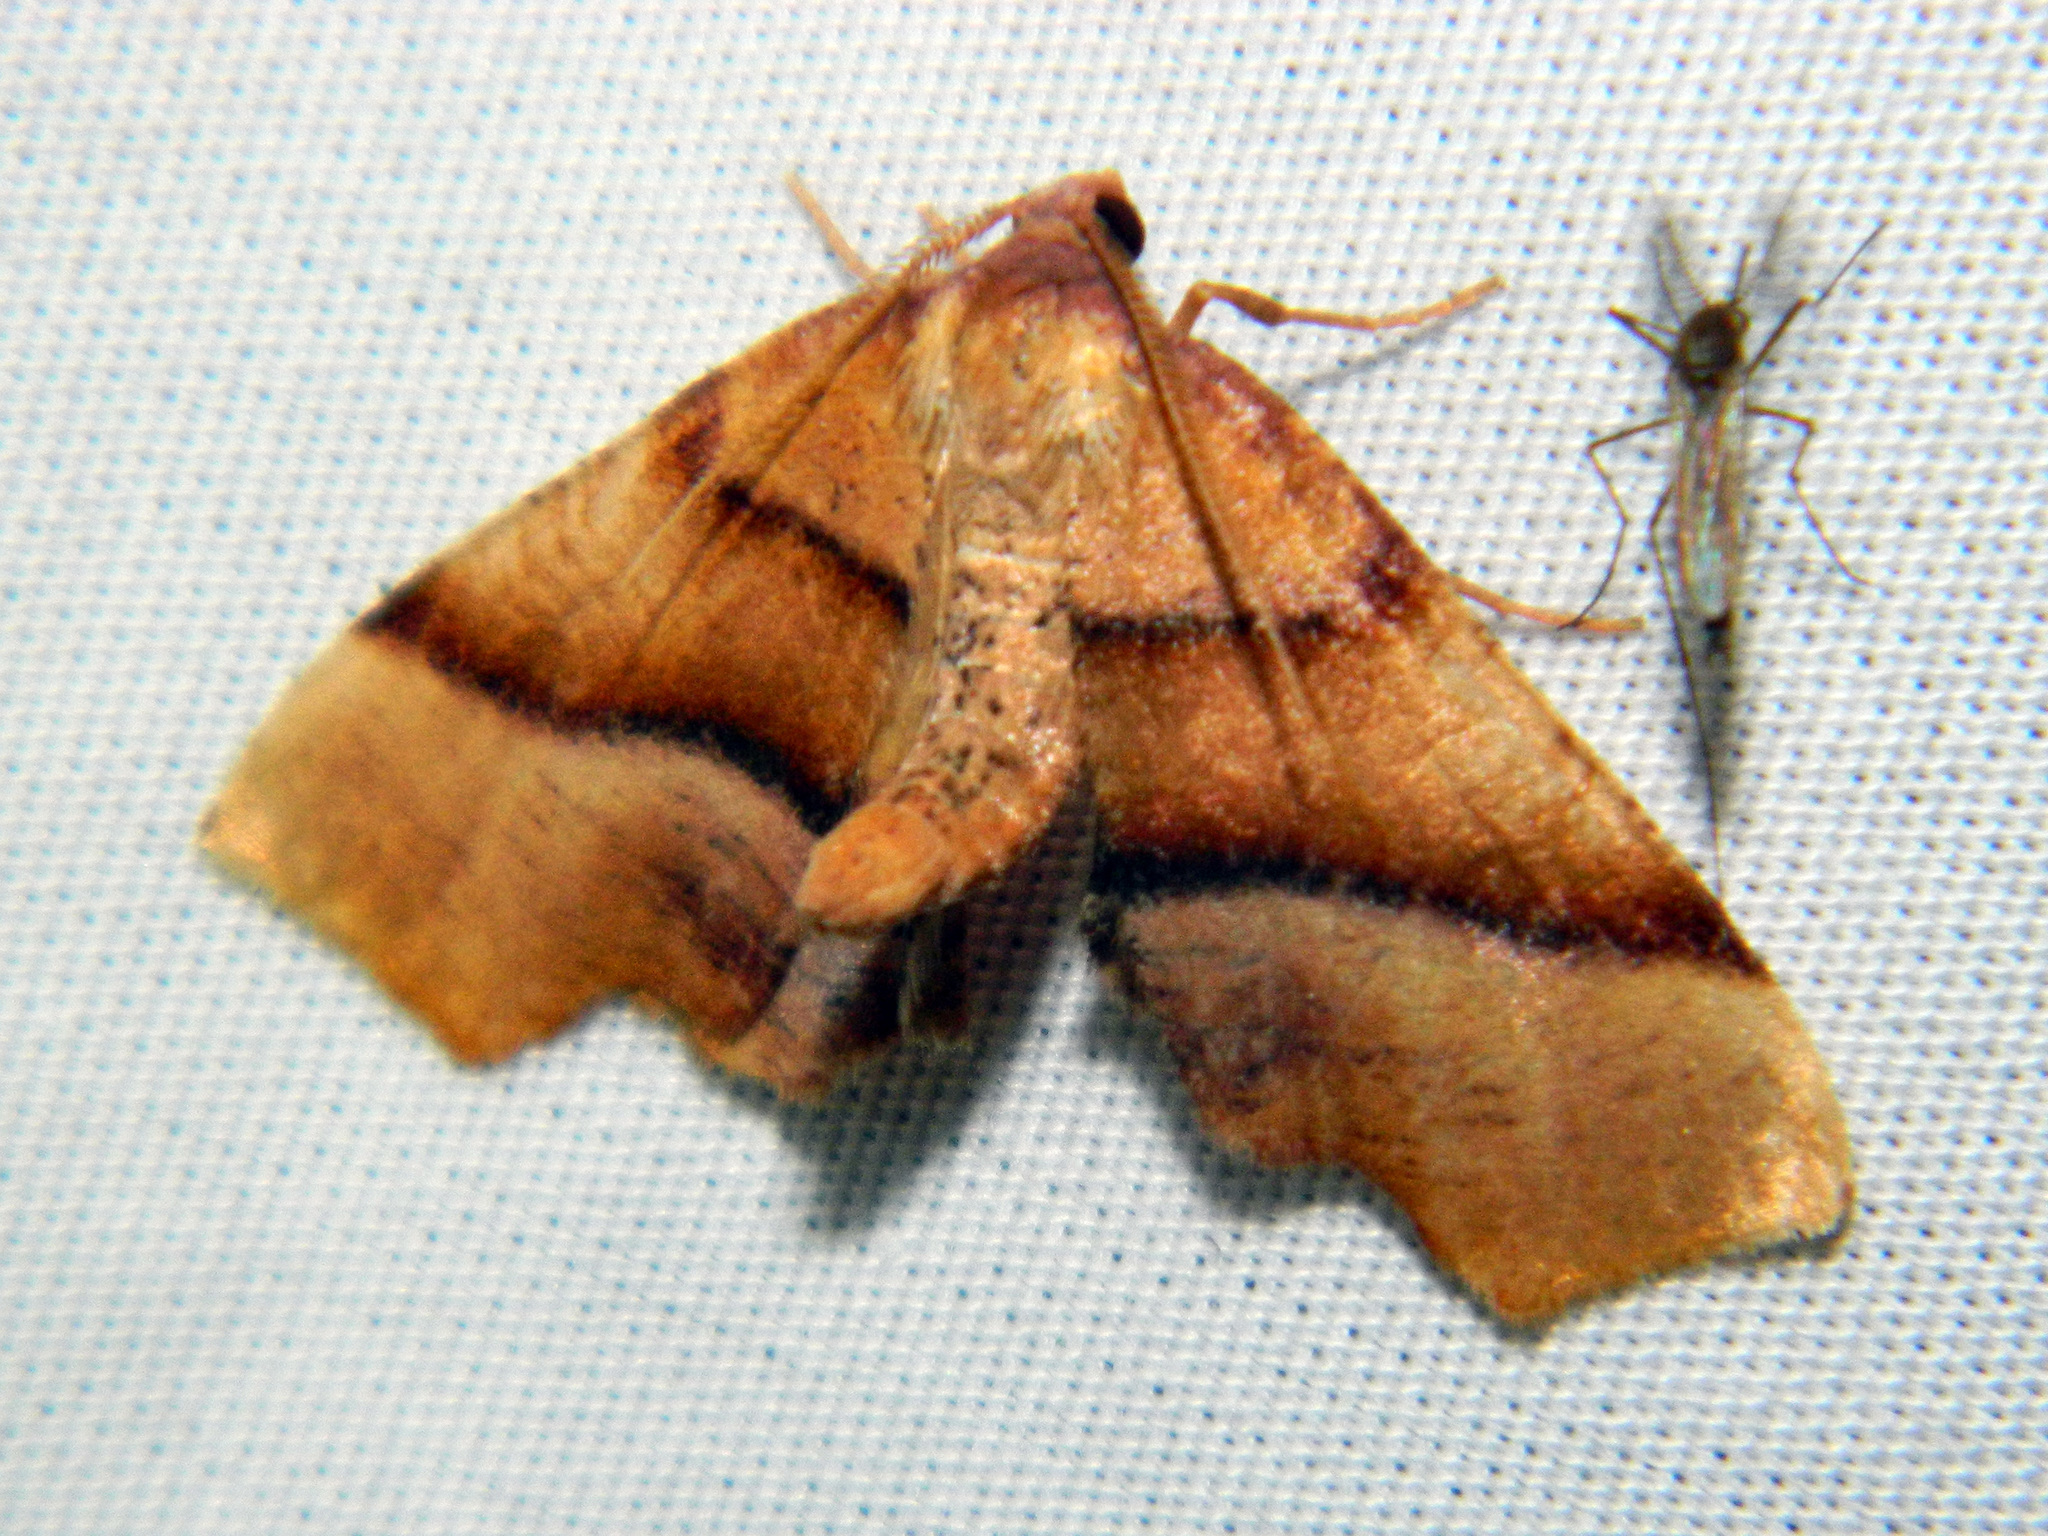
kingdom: Animalia
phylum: Arthropoda
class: Insecta
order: Lepidoptera
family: Geometridae
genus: Plagodis
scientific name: Plagodis phlogosaria
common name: Straight-lined plagodis
